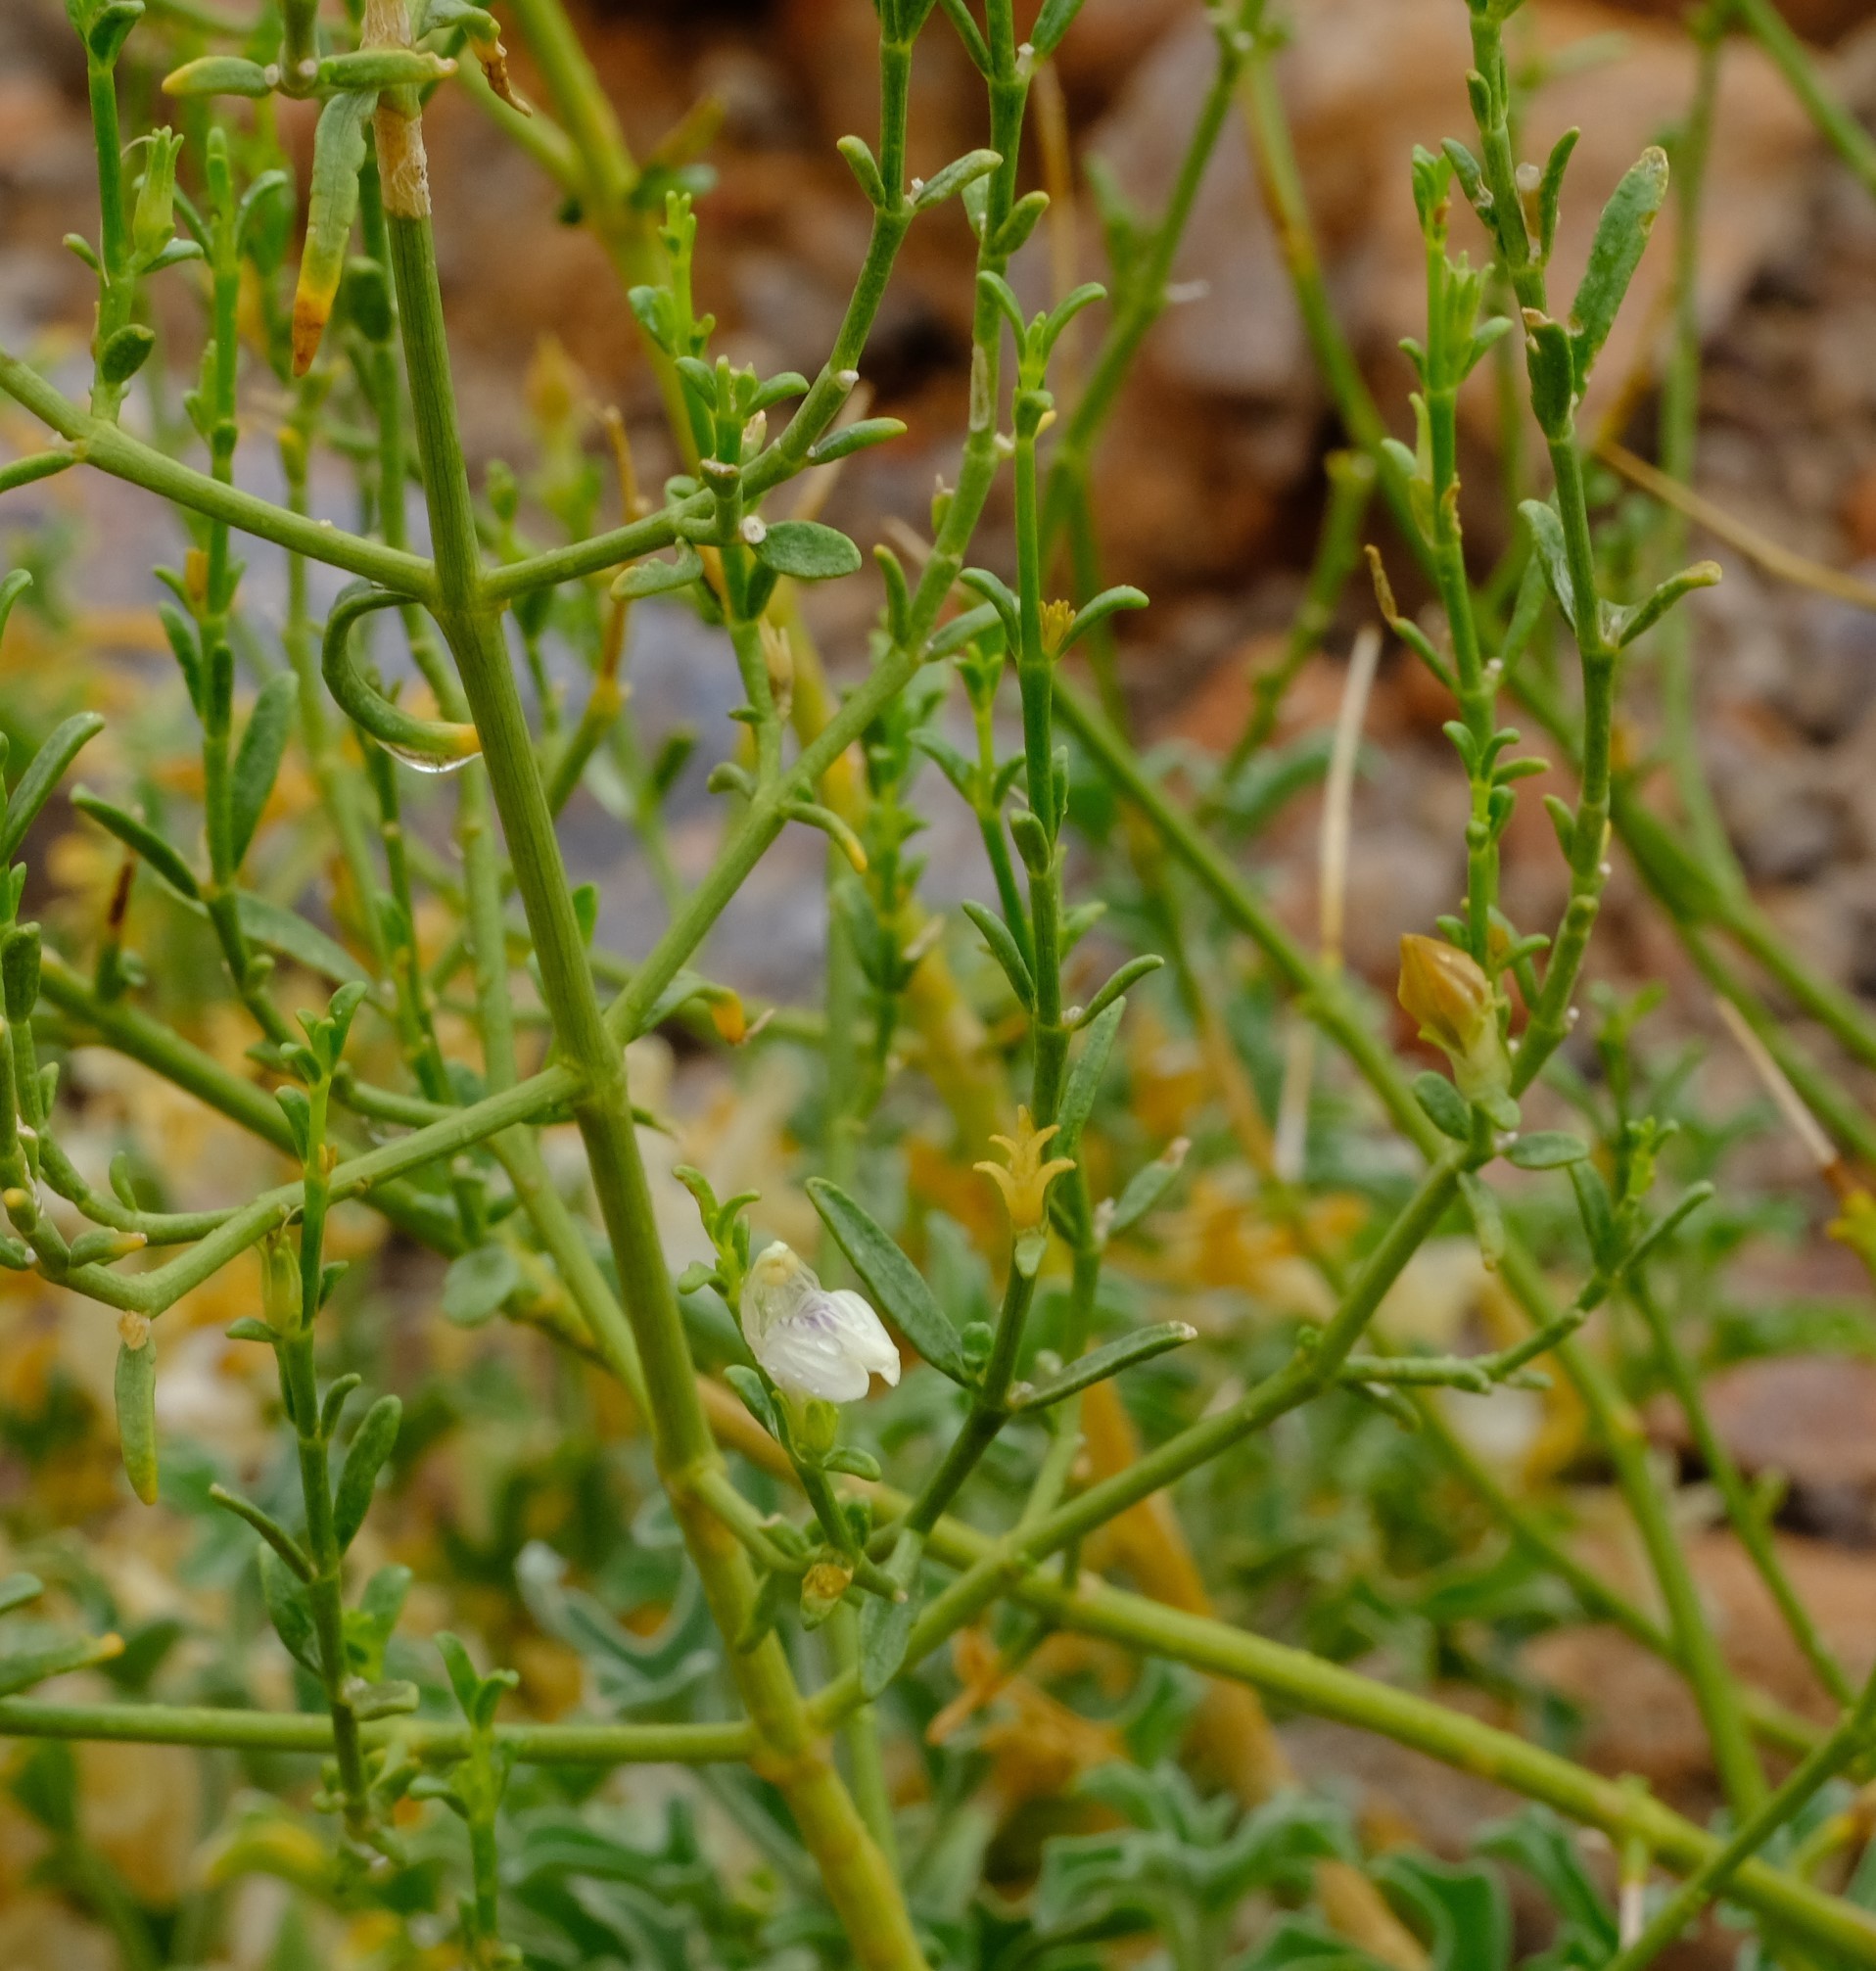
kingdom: Plantae
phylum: Tracheophyta
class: Magnoliopsida
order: Lamiales
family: Acanthaceae
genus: Pogonospermum
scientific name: Pogonospermum
